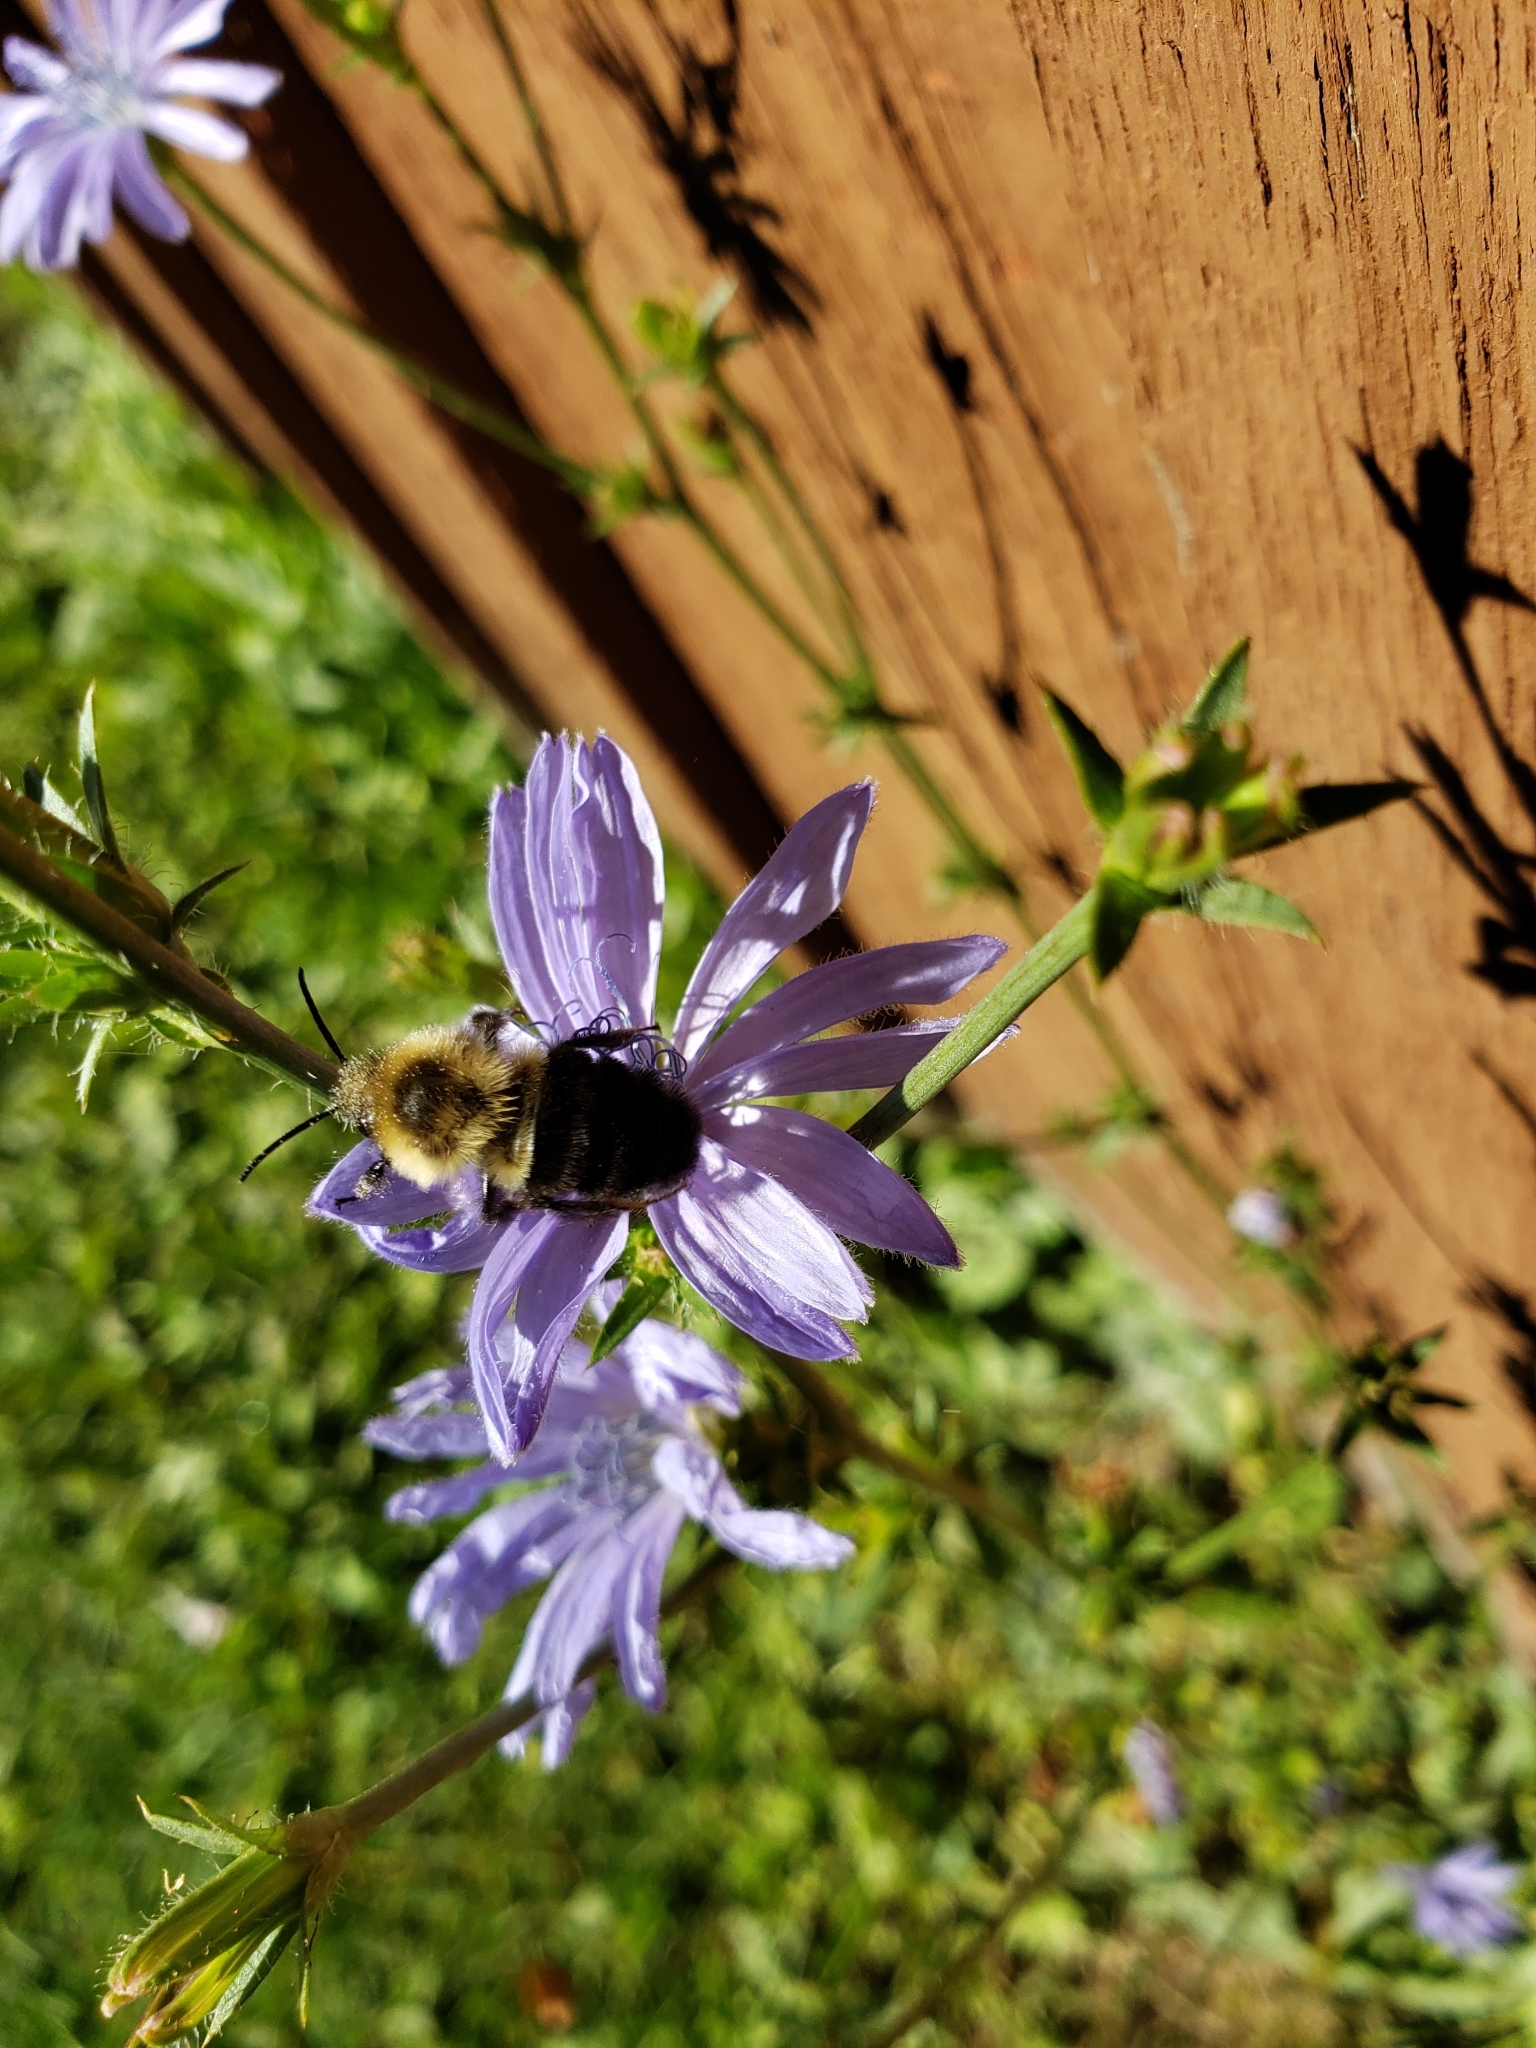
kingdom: Animalia
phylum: Arthropoda
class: Insecta
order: Hymenoptera
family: Apidae
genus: Bombus
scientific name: Bombus impatiens
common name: Common eastern bumble bee
